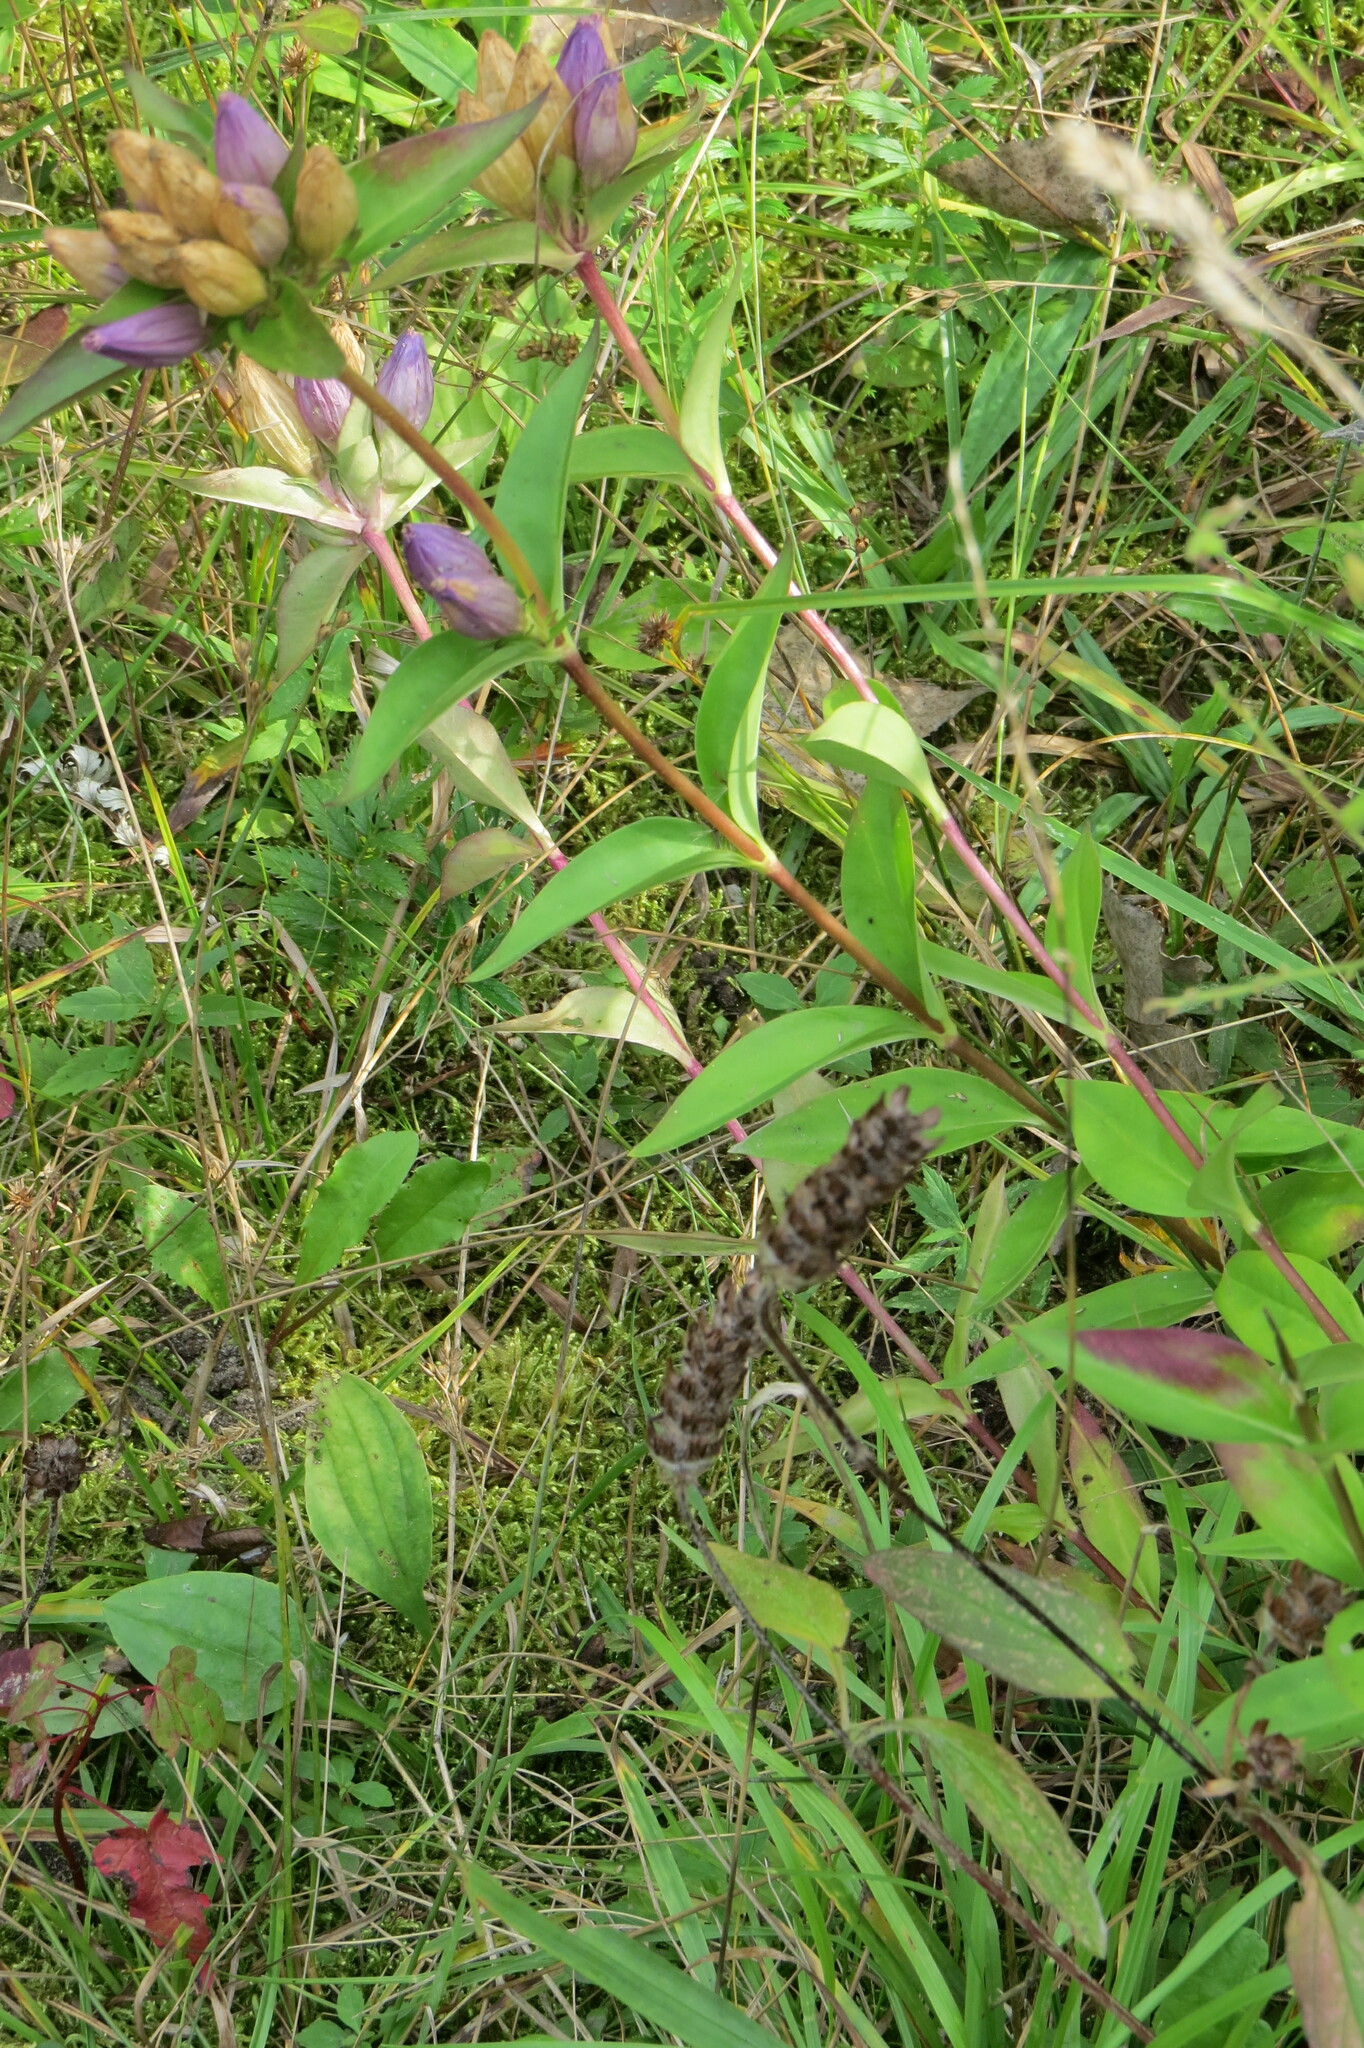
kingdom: Plantae
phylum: Tracheophyta
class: Magnoliopsida
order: Gentianales
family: Gentianaceae
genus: Gentiana
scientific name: Gentiana andrewsii
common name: Bottle gentian
